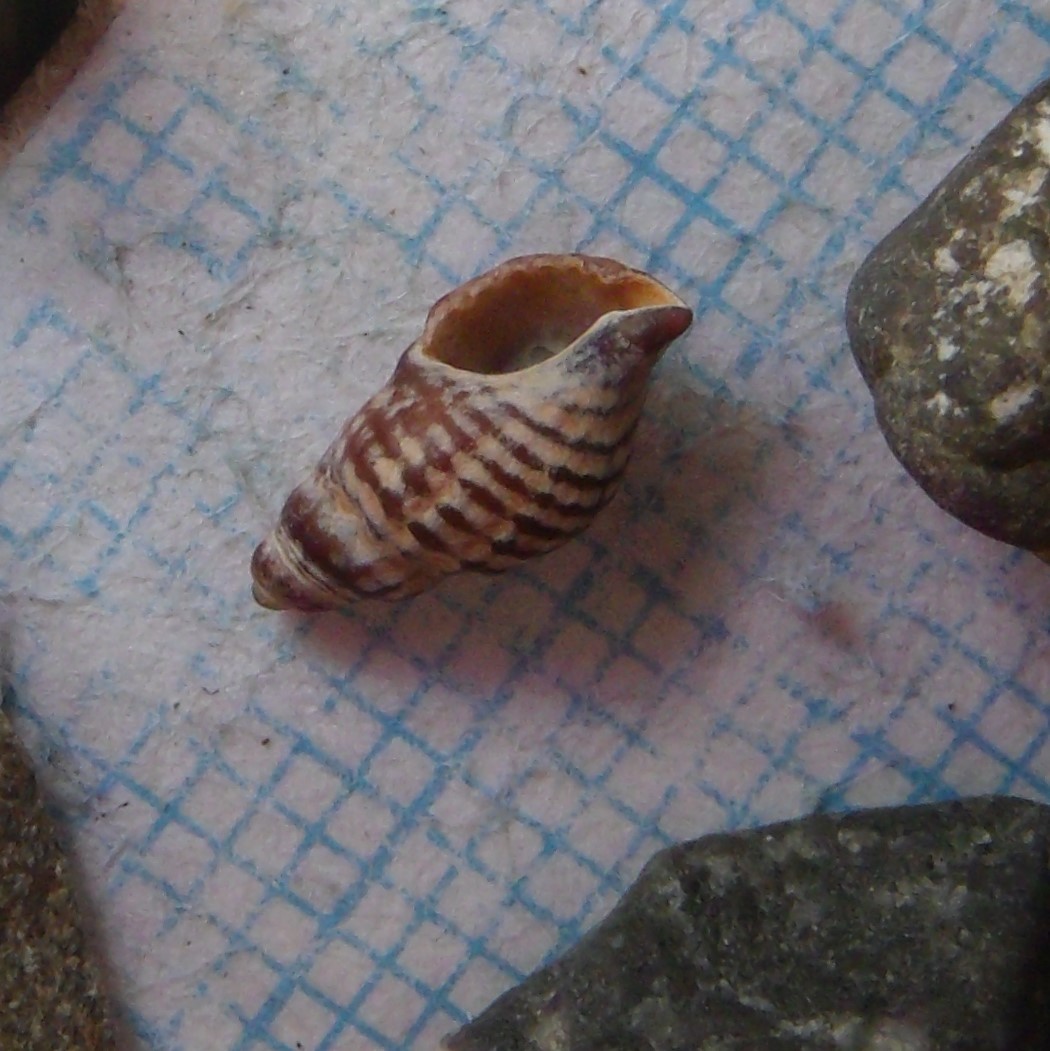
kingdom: Animalia
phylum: Mollusca
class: Gastropoda
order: Neogastropoda
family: Muricidae
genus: Xymene
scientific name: Xymene plebeius
